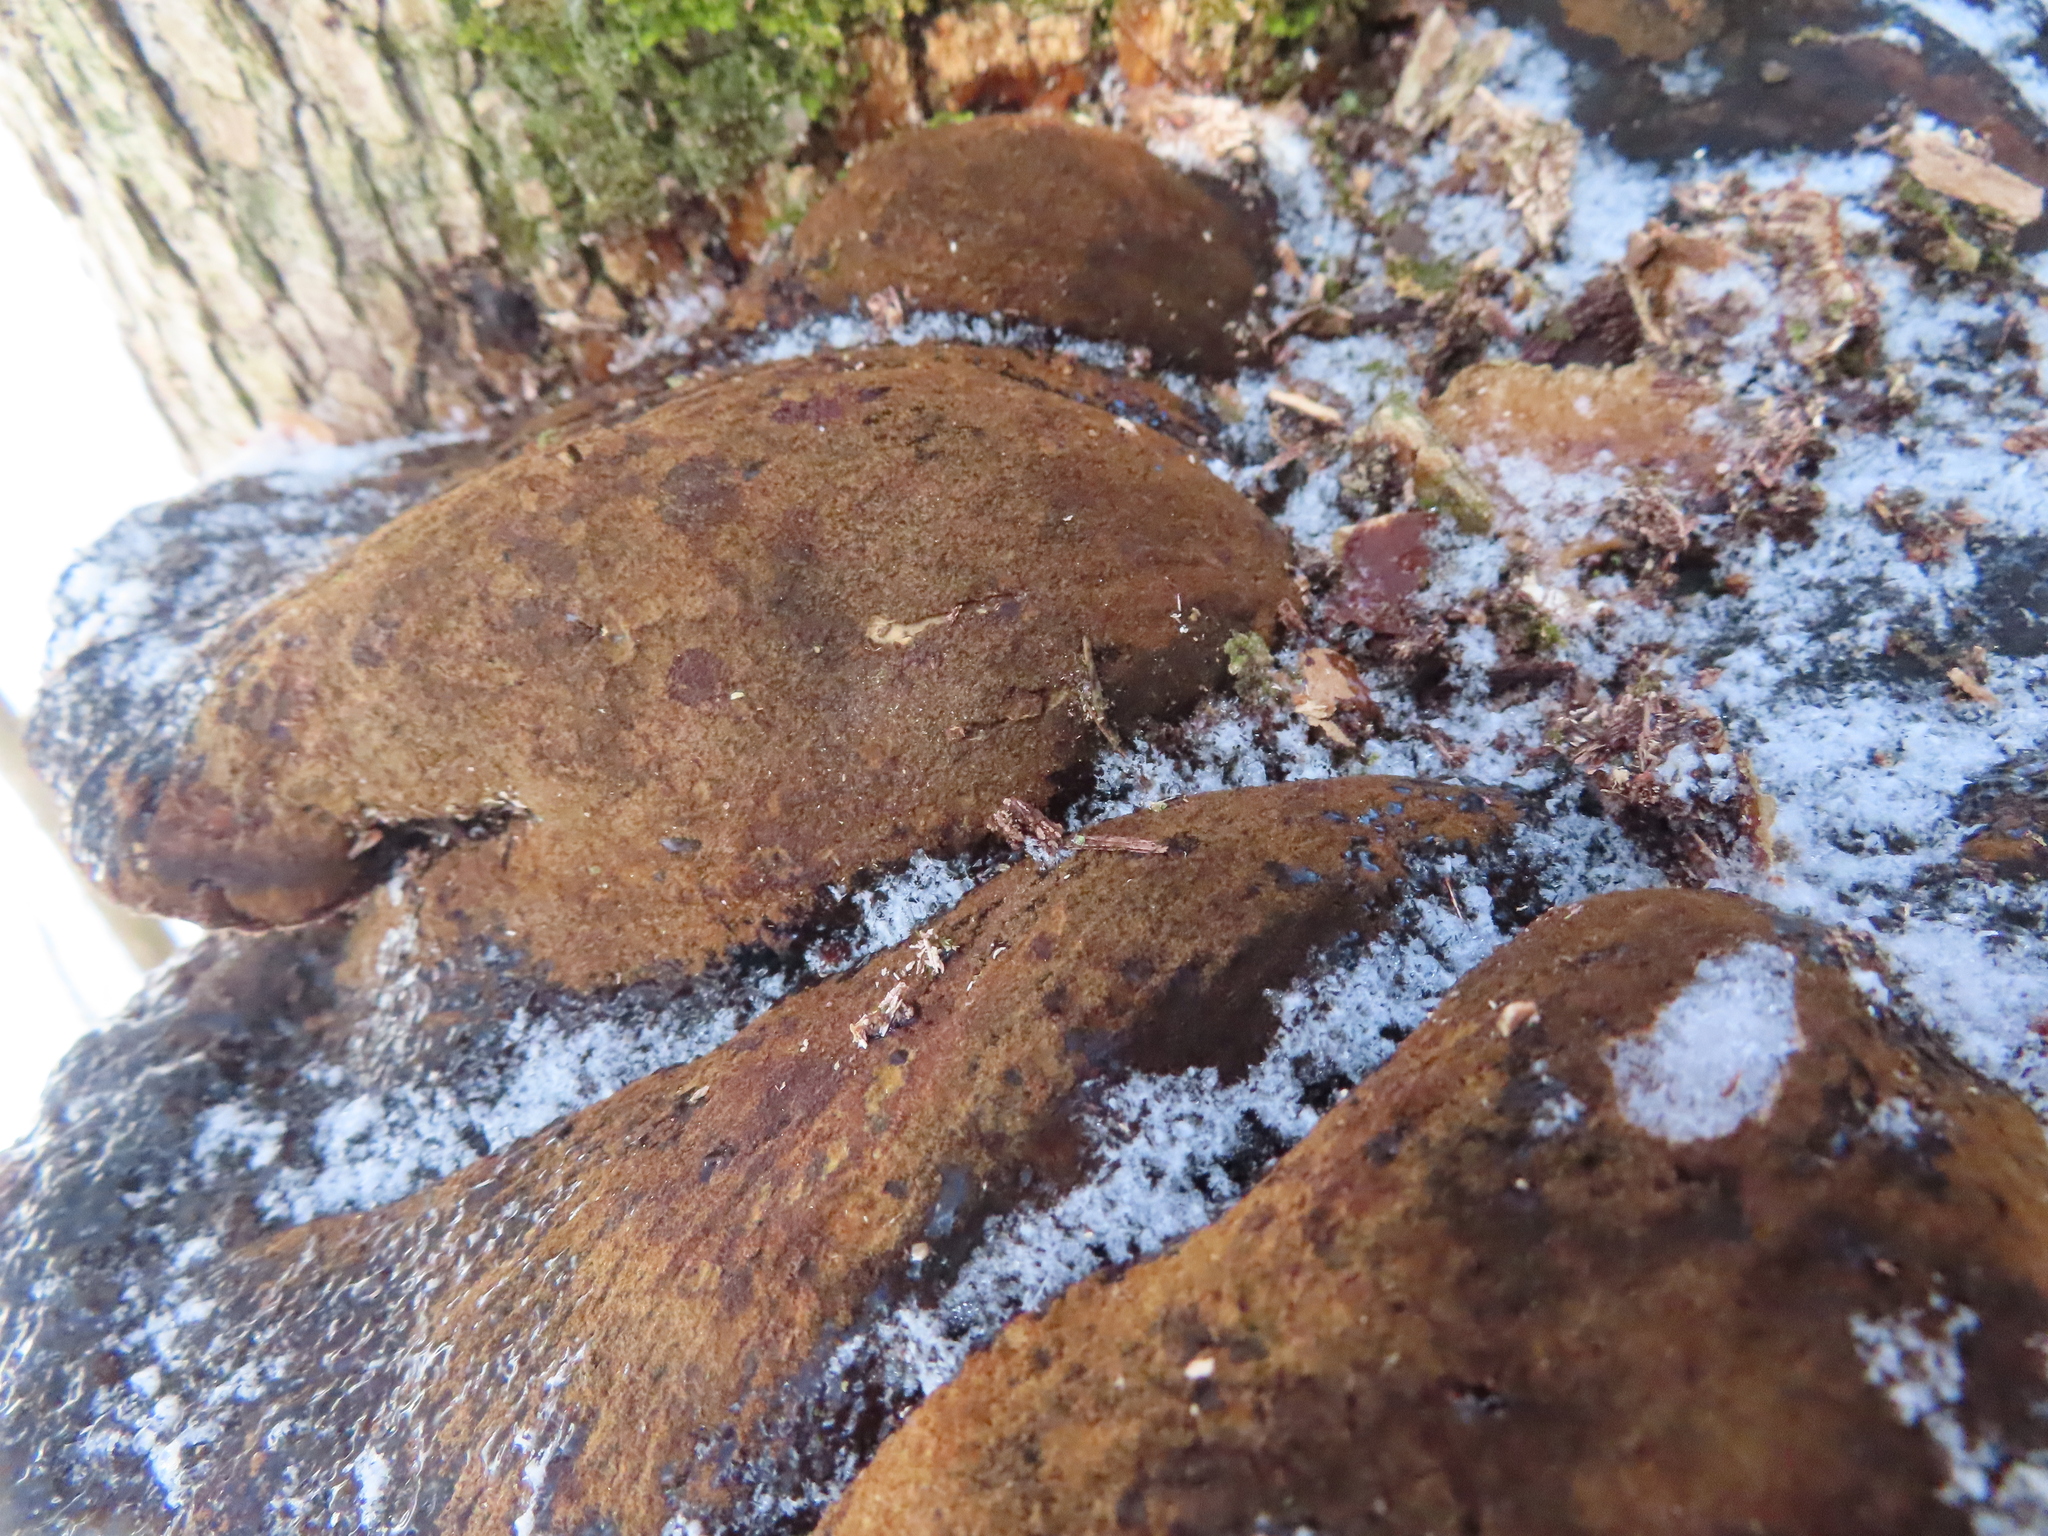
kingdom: Fungi
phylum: Basidiomycota
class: Agaricomycetes
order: Polyporales
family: Ischnodermataceae
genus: Ischnoderma
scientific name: Ischnoderma resinosum
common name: Resinous polypore
